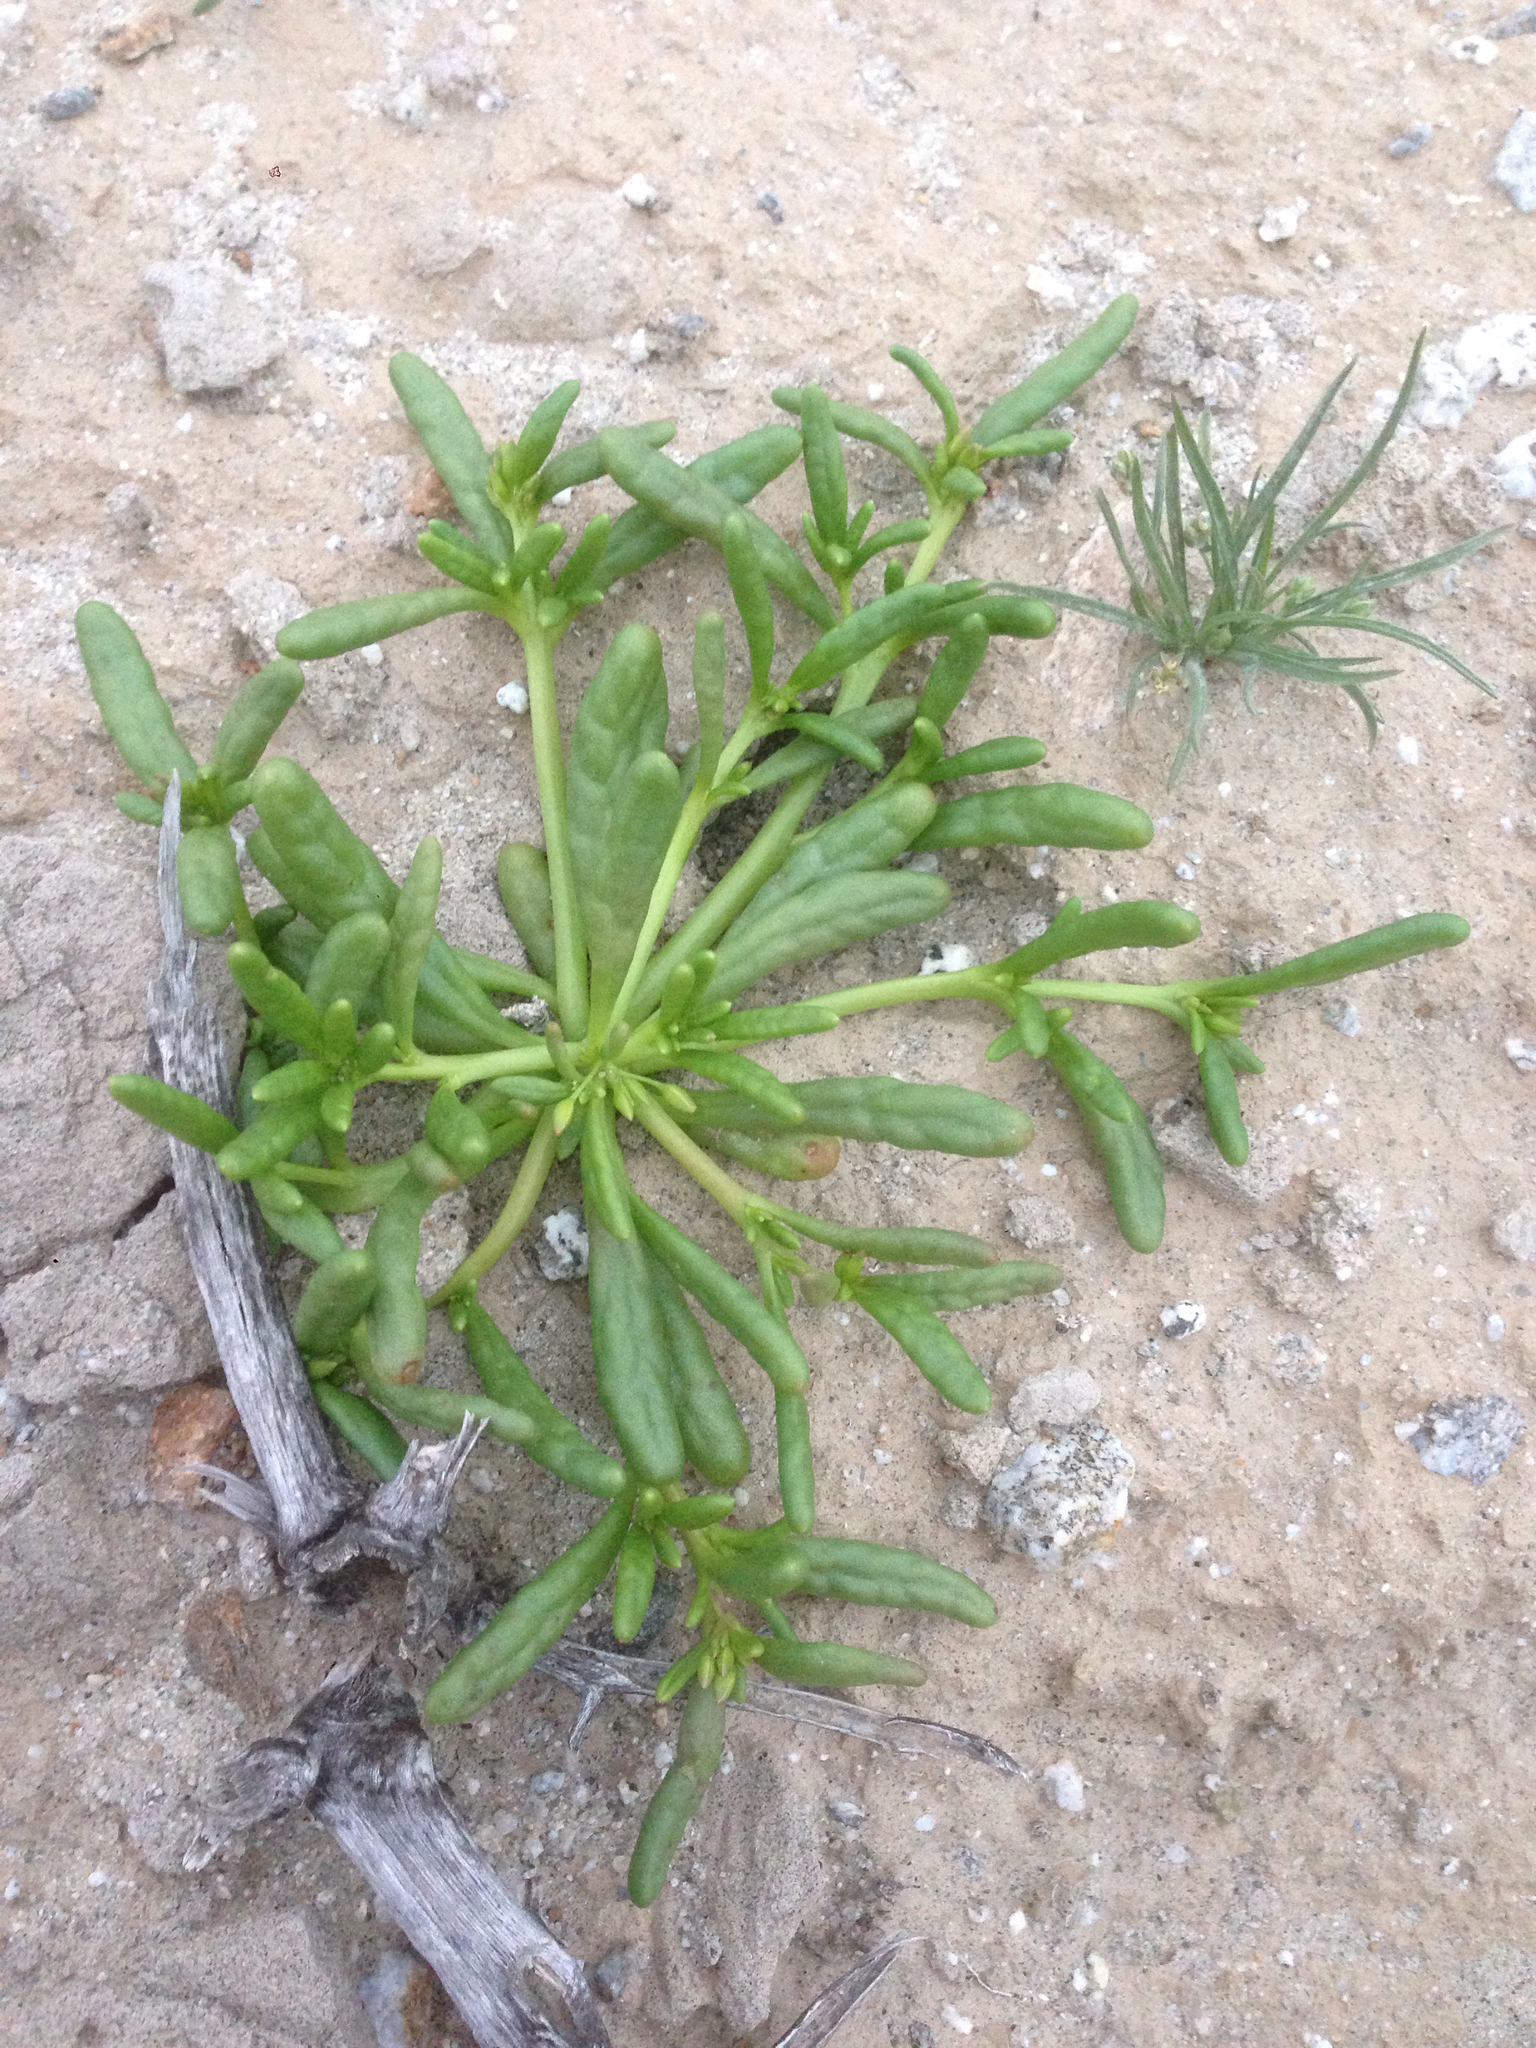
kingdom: Plantae
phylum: Tracheophyta
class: Magnoliopsida
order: Caryophyllales
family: Montiaceae
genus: Thingia
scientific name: Thingia ambigua
